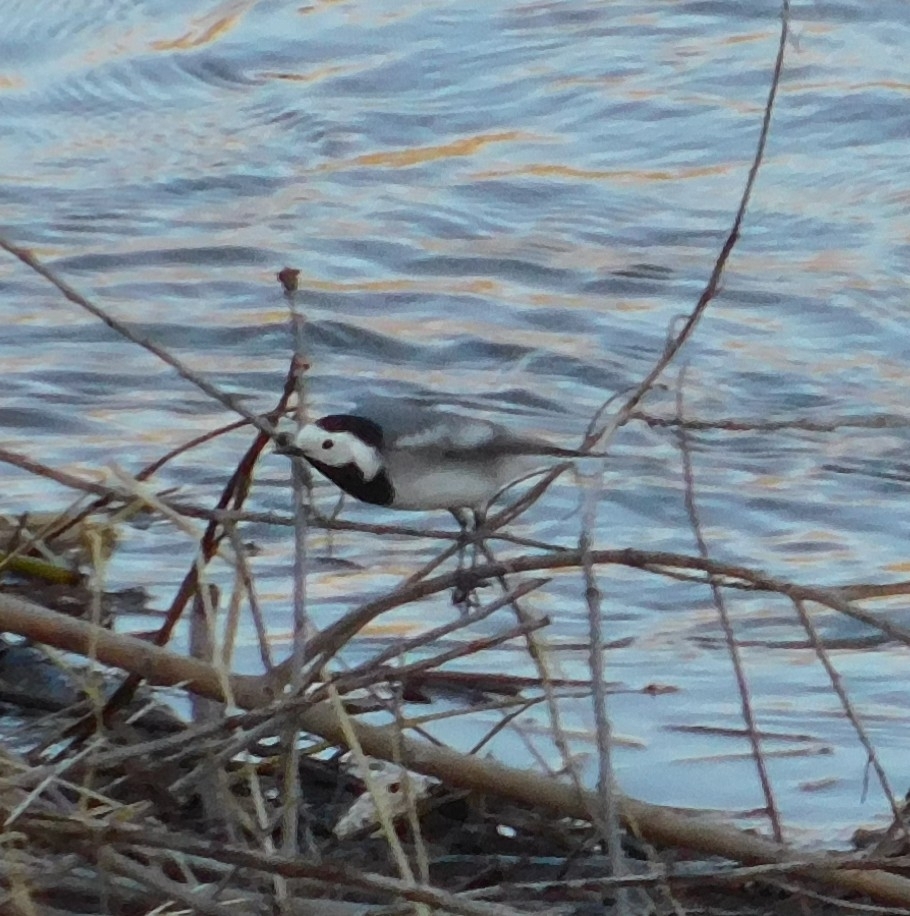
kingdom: Animalia
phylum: Chordata
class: Aves
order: Passeriformes
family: Motacillidae
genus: Motacilla
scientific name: Motacilla alba
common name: White wagtail
